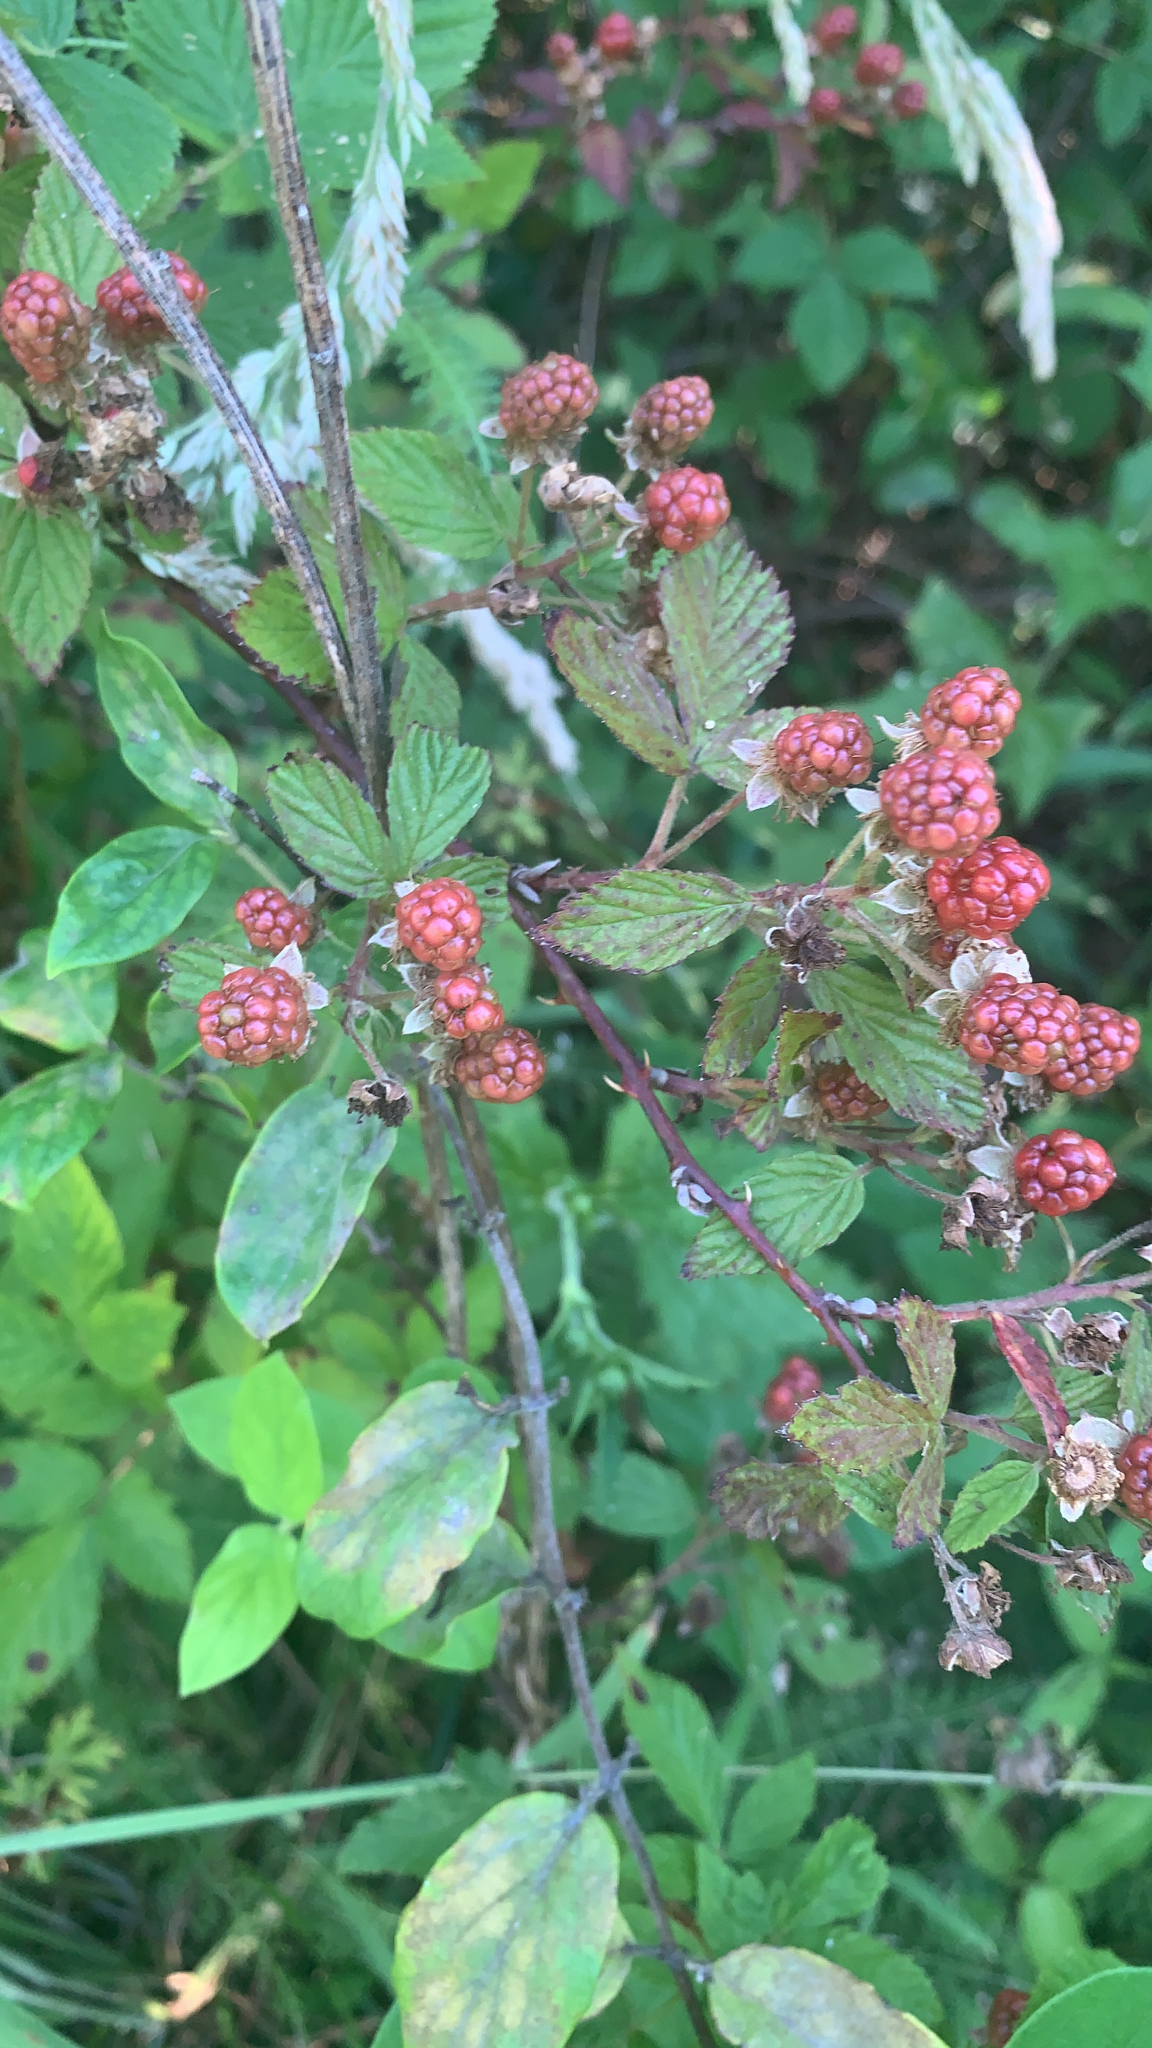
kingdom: Plantae
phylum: Tracheophyta
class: Magnoliopsida
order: Rosales
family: Rosaceae
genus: Rubus
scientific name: Rubus
